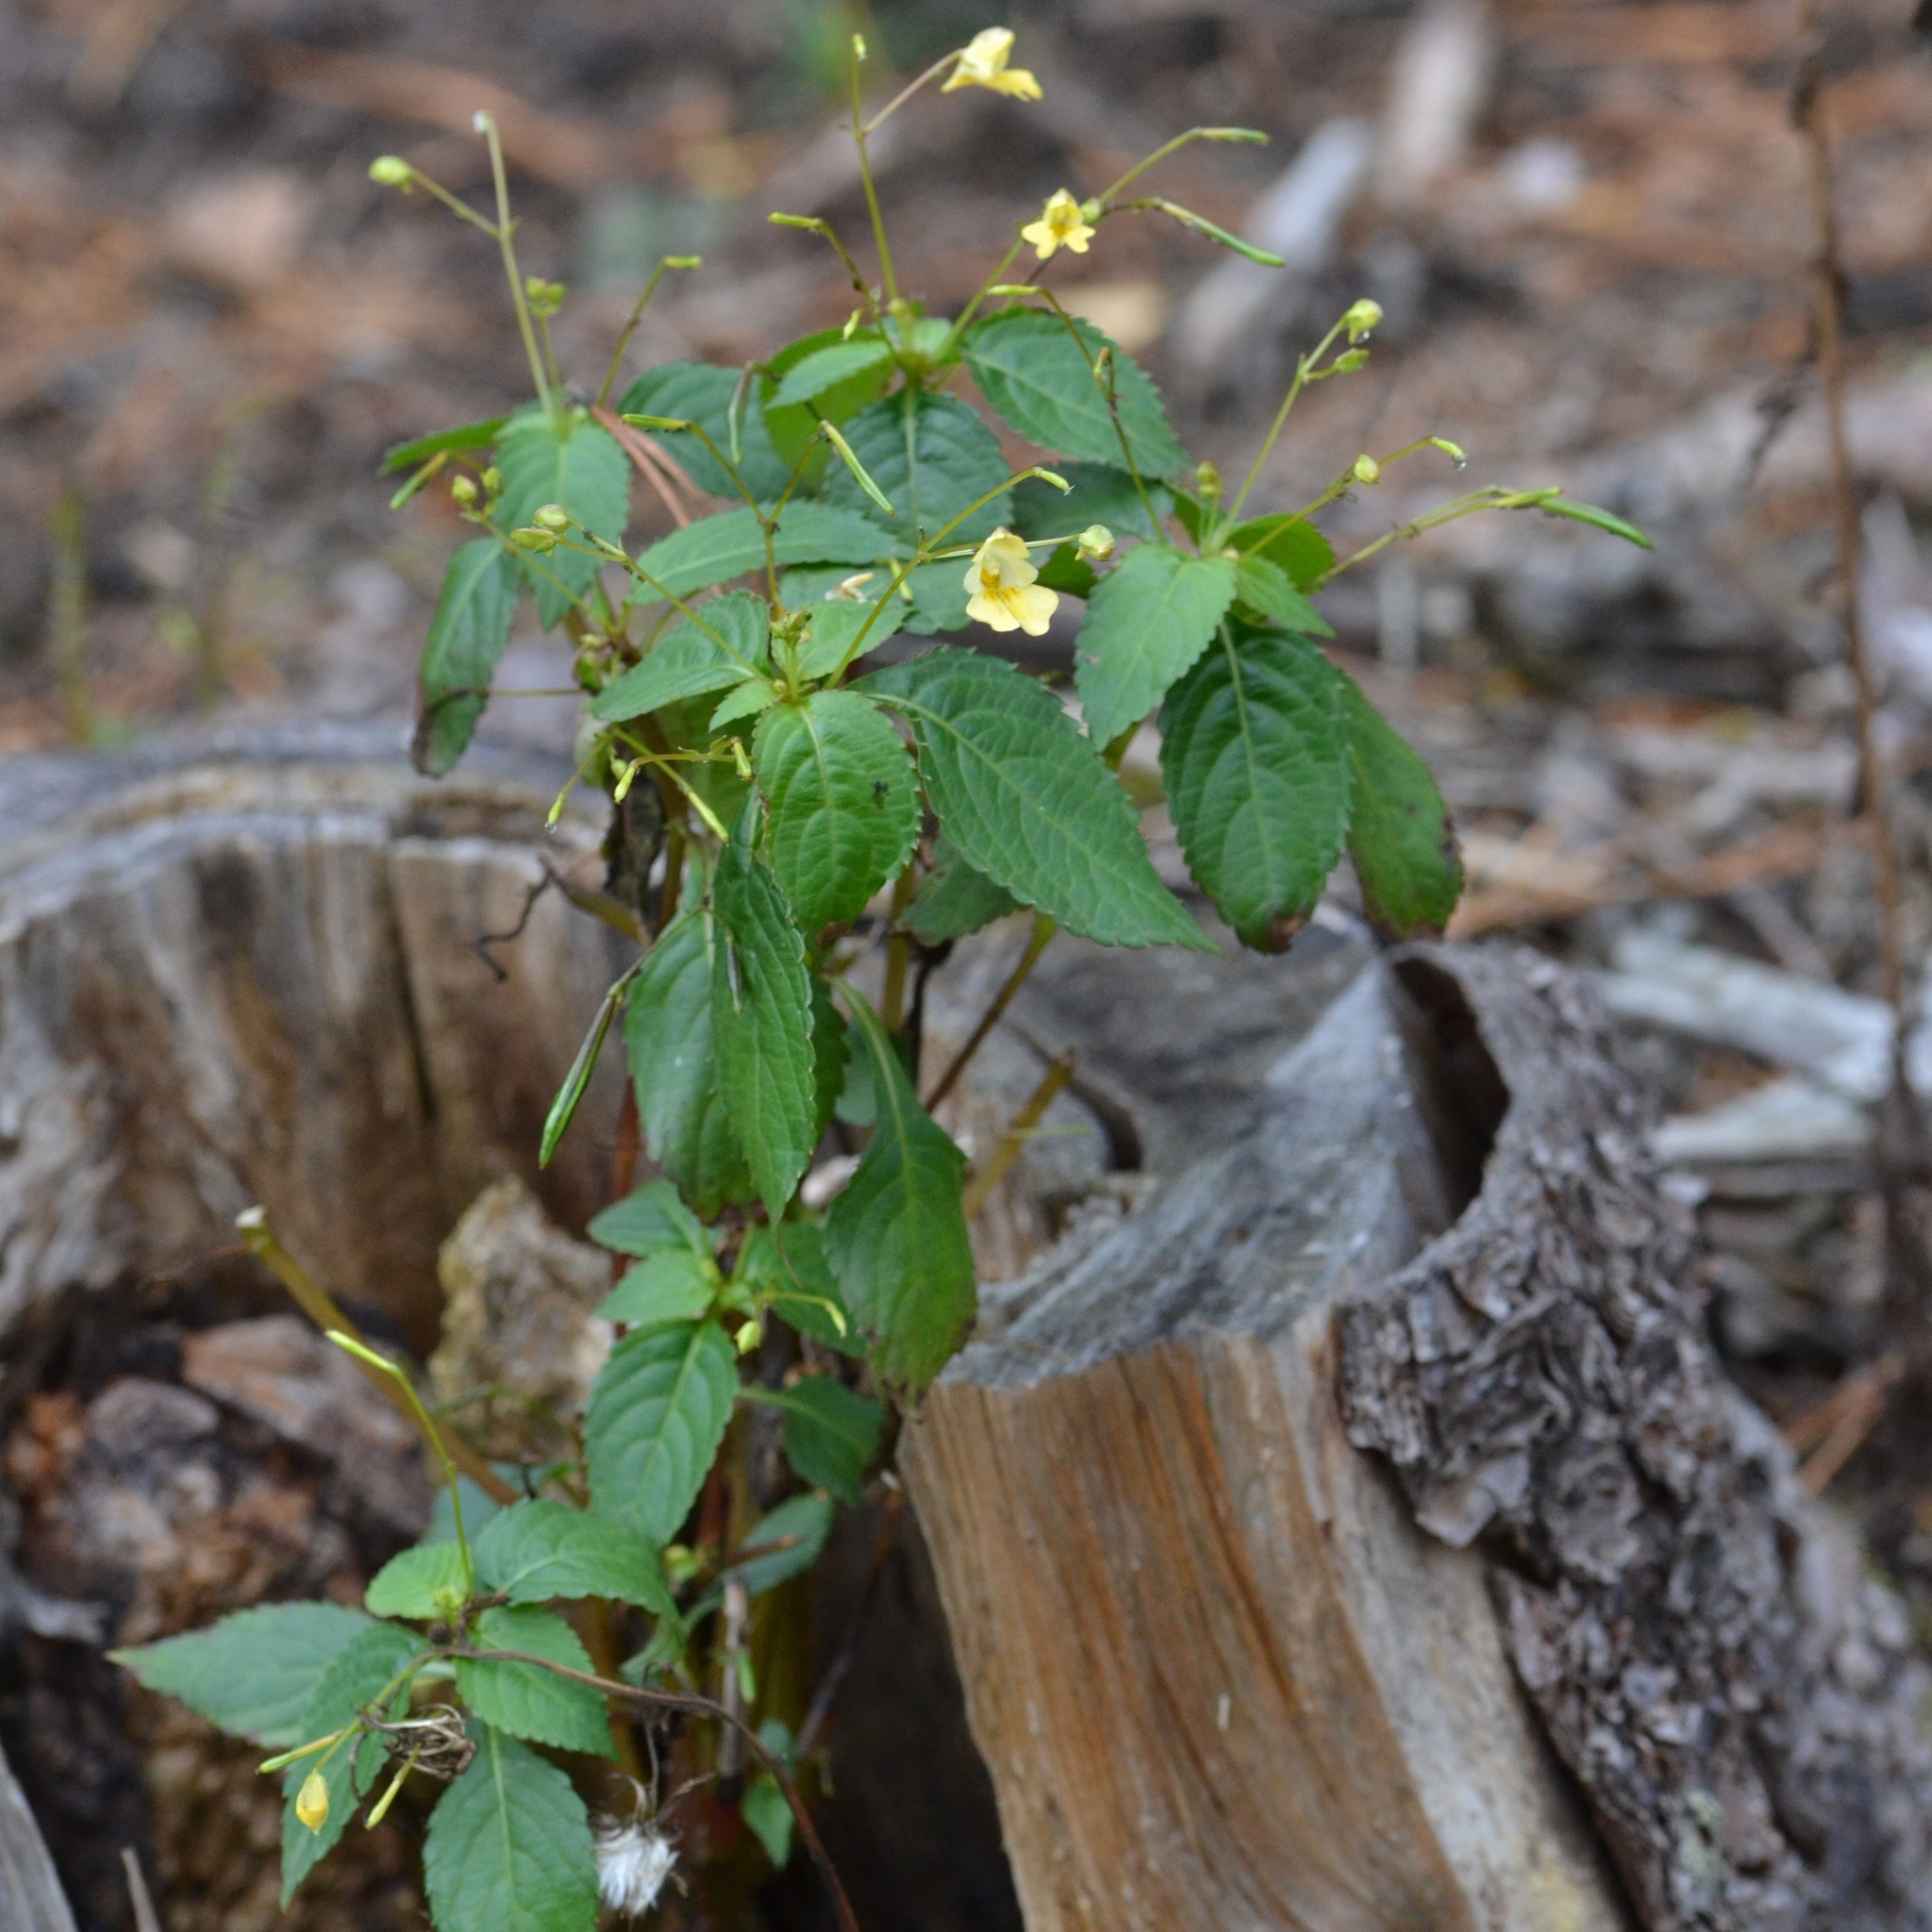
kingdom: Plantae
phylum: Tracheophyta
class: Magnoliopsida
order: Ericales
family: Balsaminaceae
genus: Impatiens
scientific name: Impatiens parviflora
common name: Small balsam
